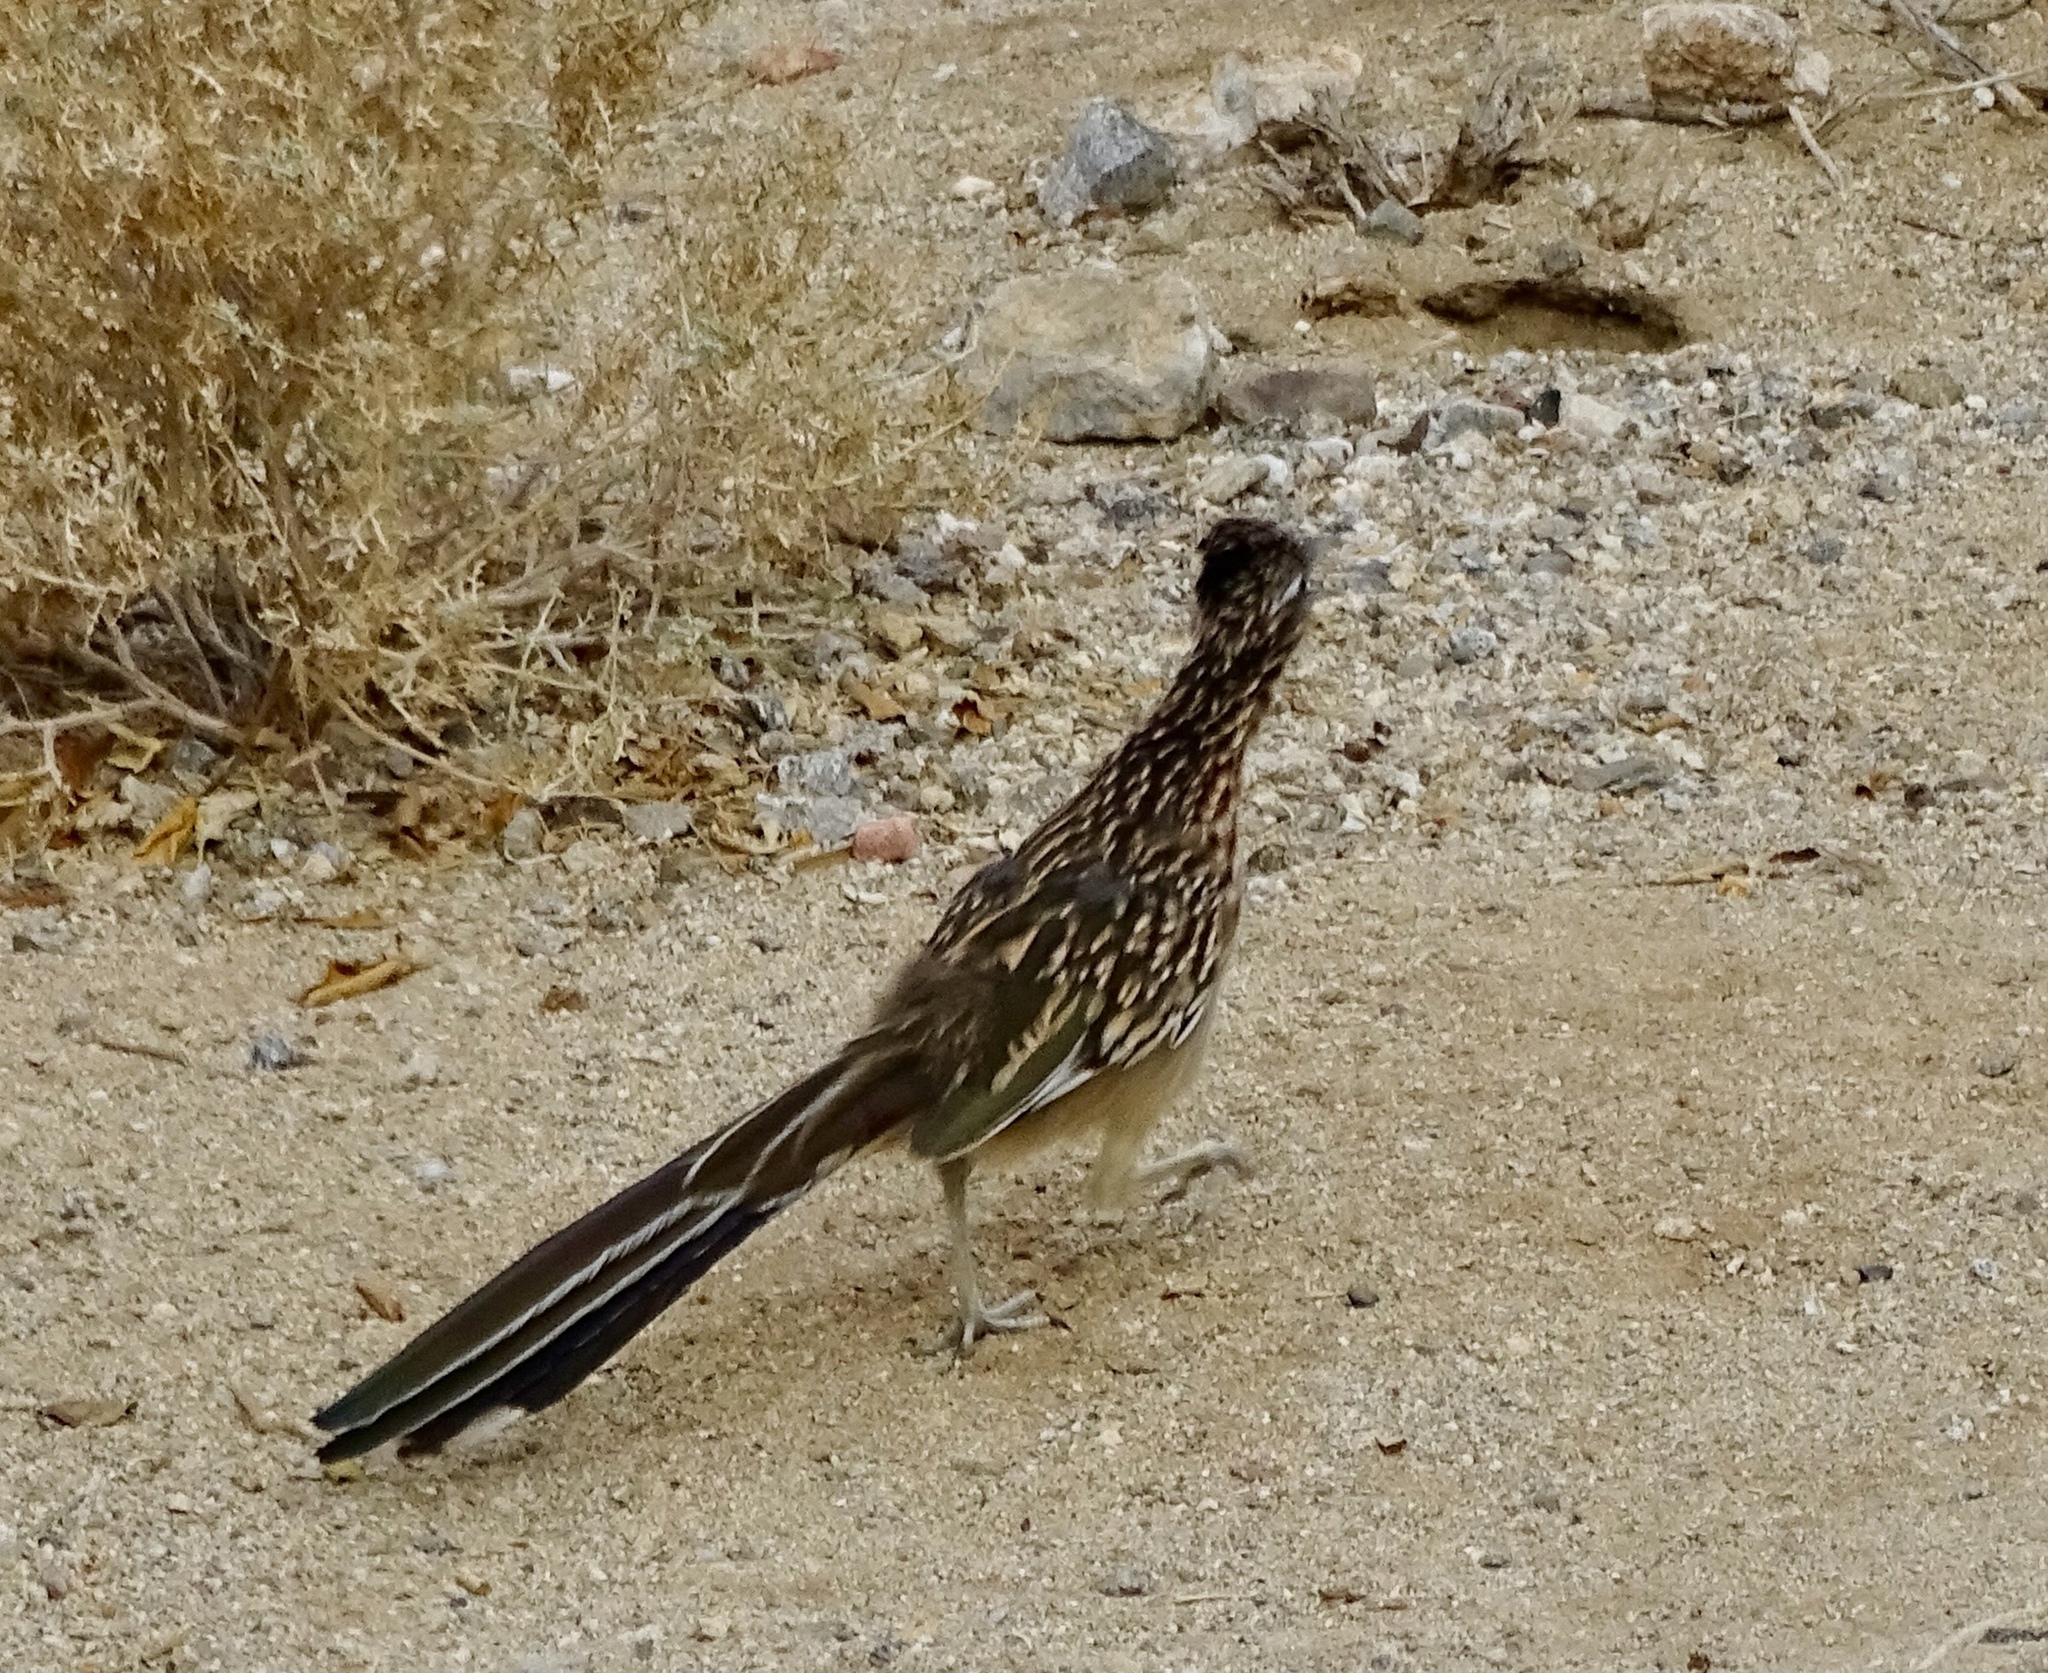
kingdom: Animalia
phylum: Chordata
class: Aves
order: Cuculiformes
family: Cuculidae
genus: Geococcyx
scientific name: Geococcyx californianus
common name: Greater roadrunner
